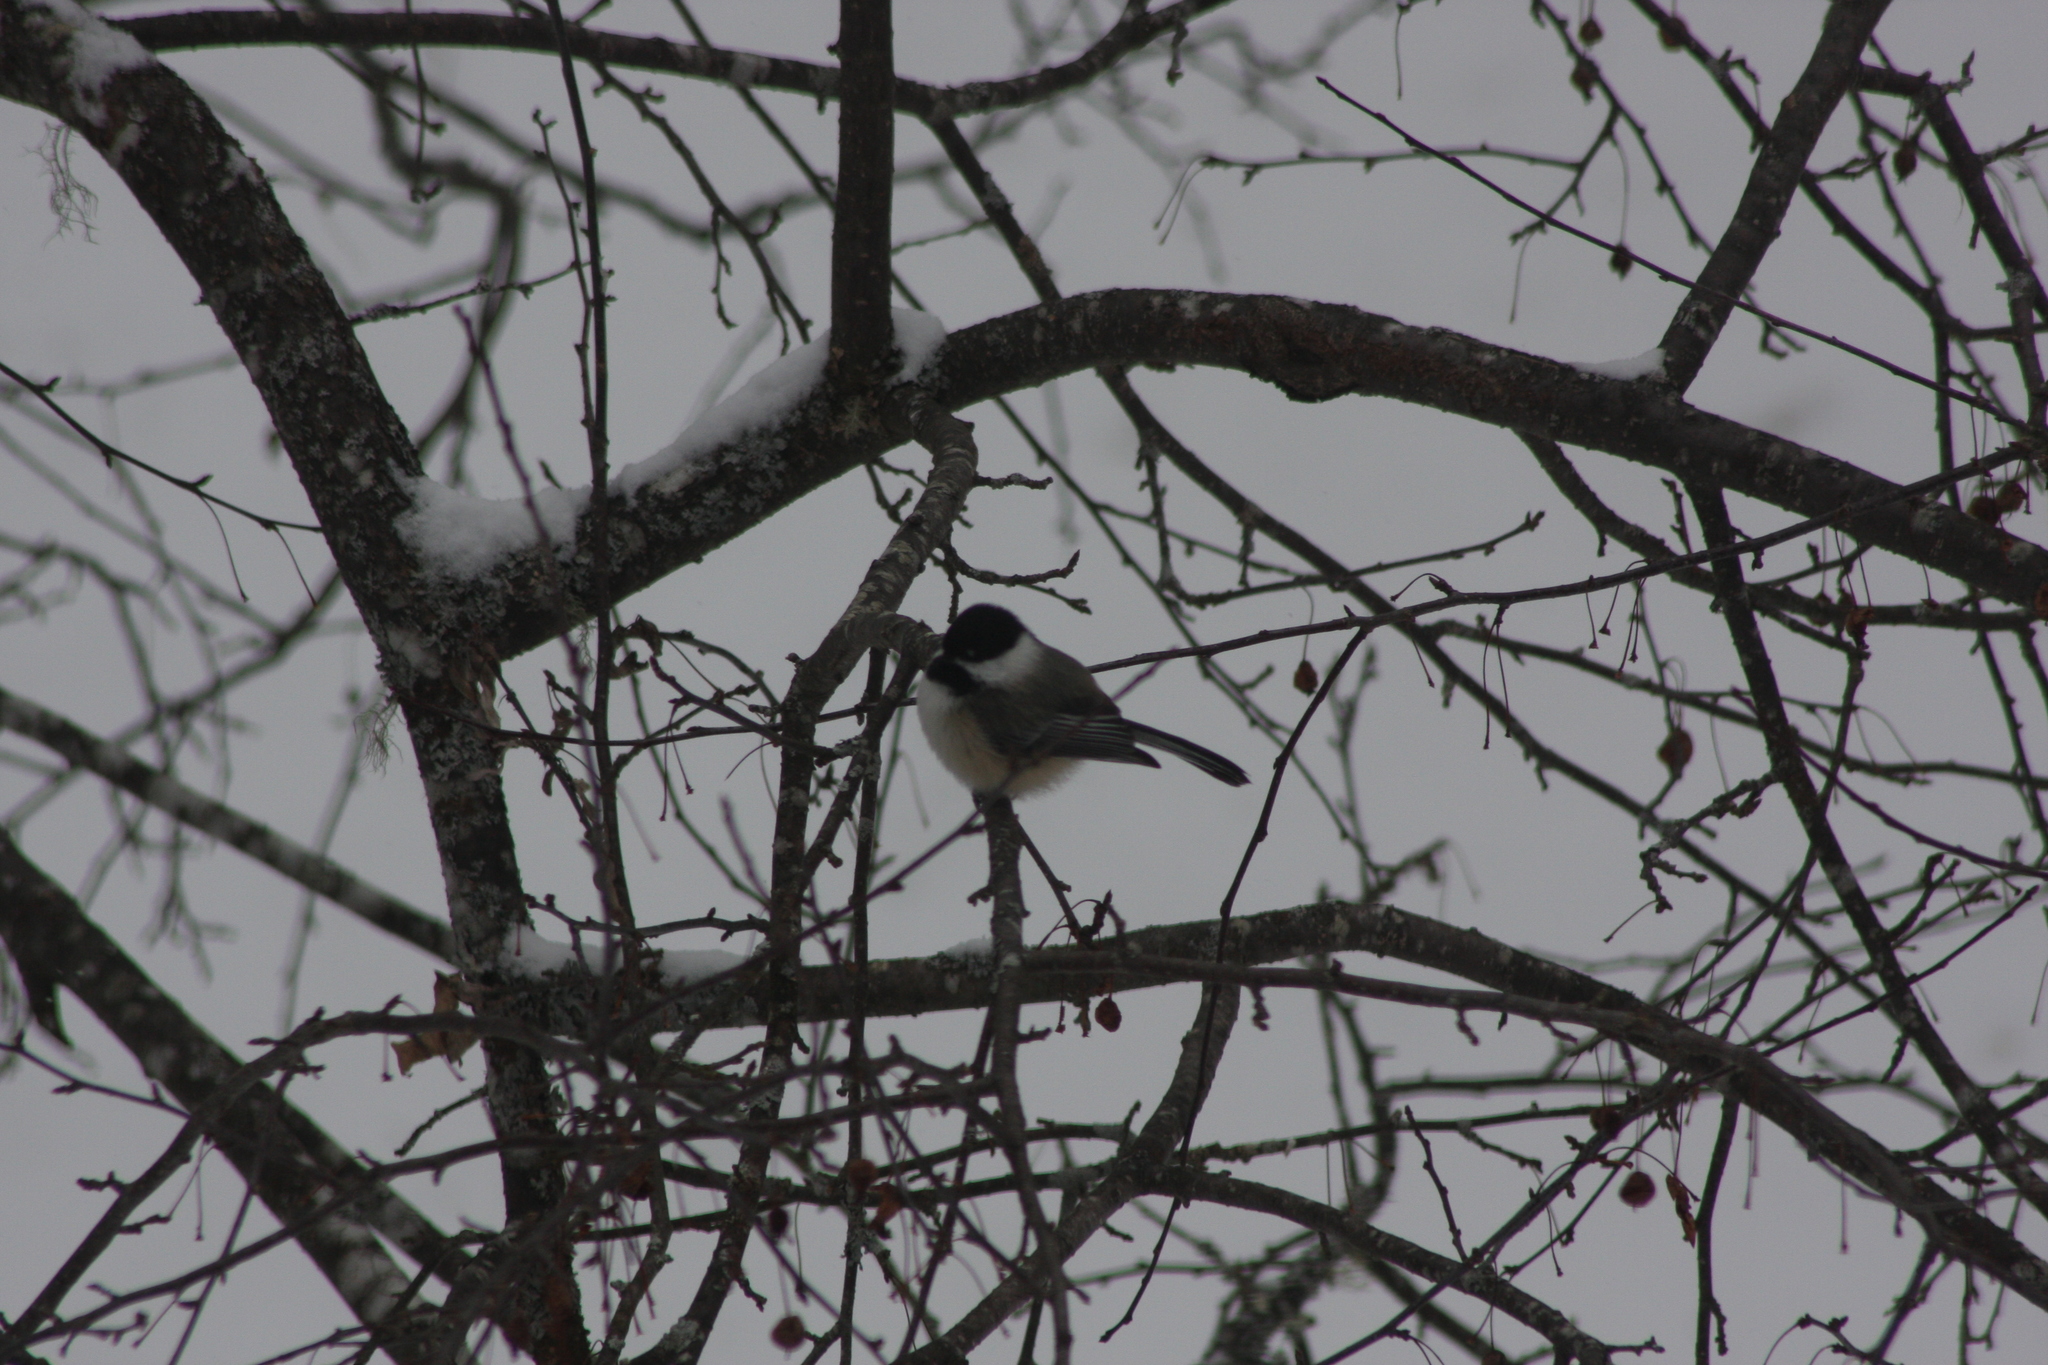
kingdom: Animalia
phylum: Chordata
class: Aves
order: Passeriformes
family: Paridae
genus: Poecile
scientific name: Poecile atricapillus
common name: Black-capped chickadee
